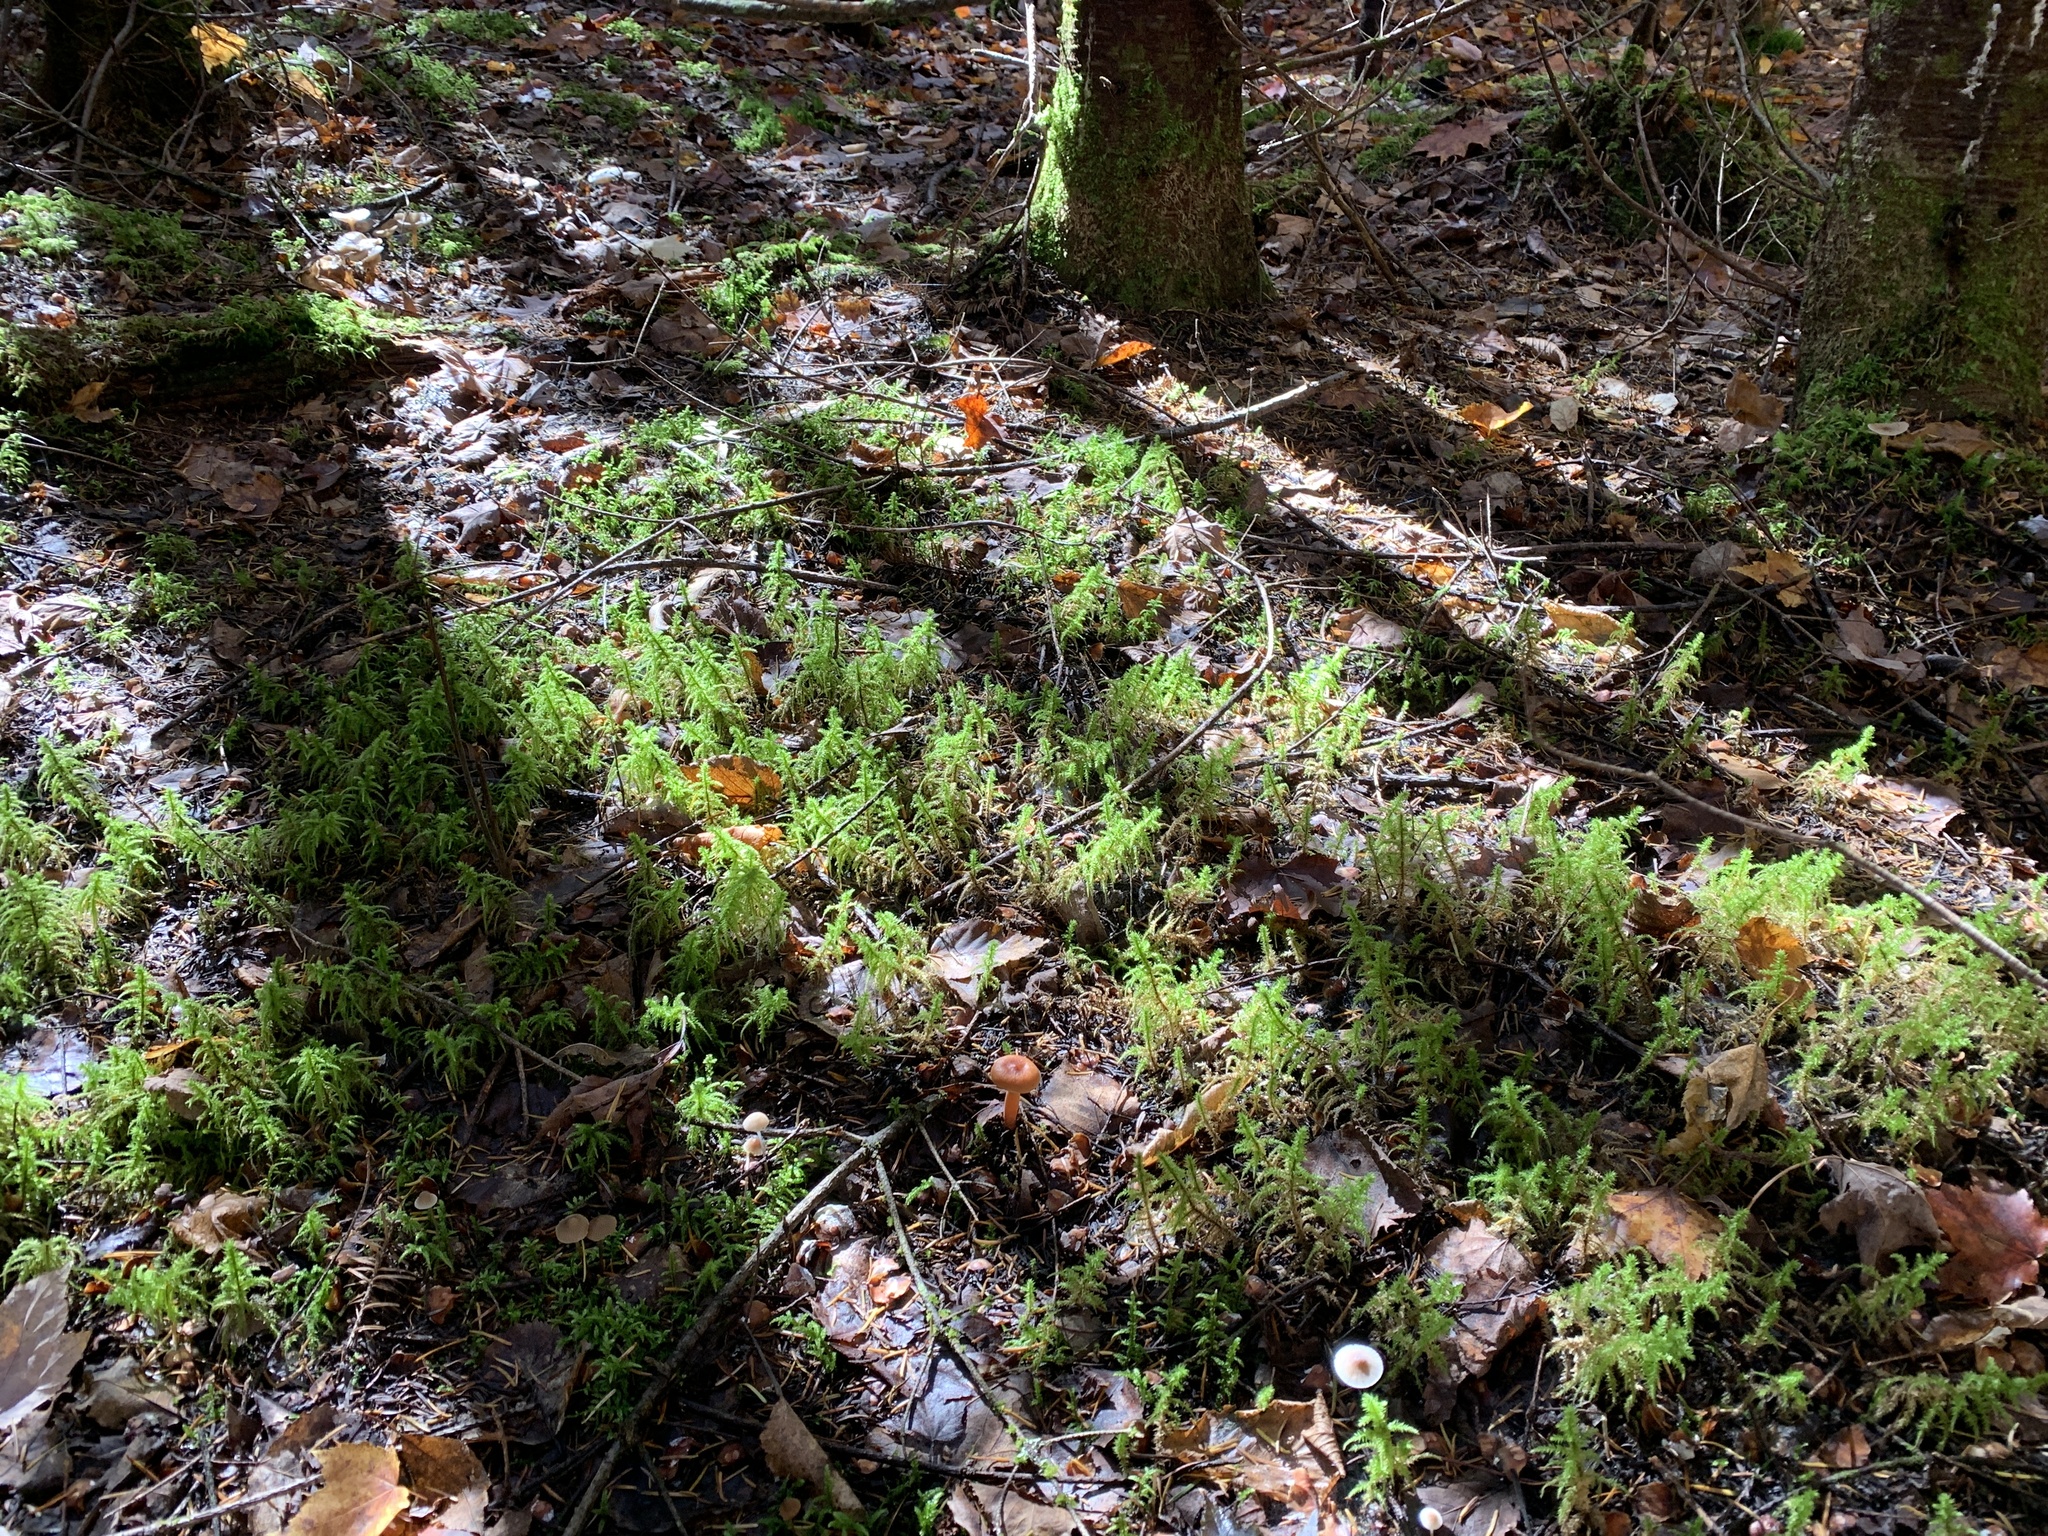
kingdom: Plantae
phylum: Bryophyta
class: Bryopsida
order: Hypnales
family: Hylocomiaceae
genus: Hylocomiadelphus
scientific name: Hylocomiadelphus triquetrus
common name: Rough goose neck moss
